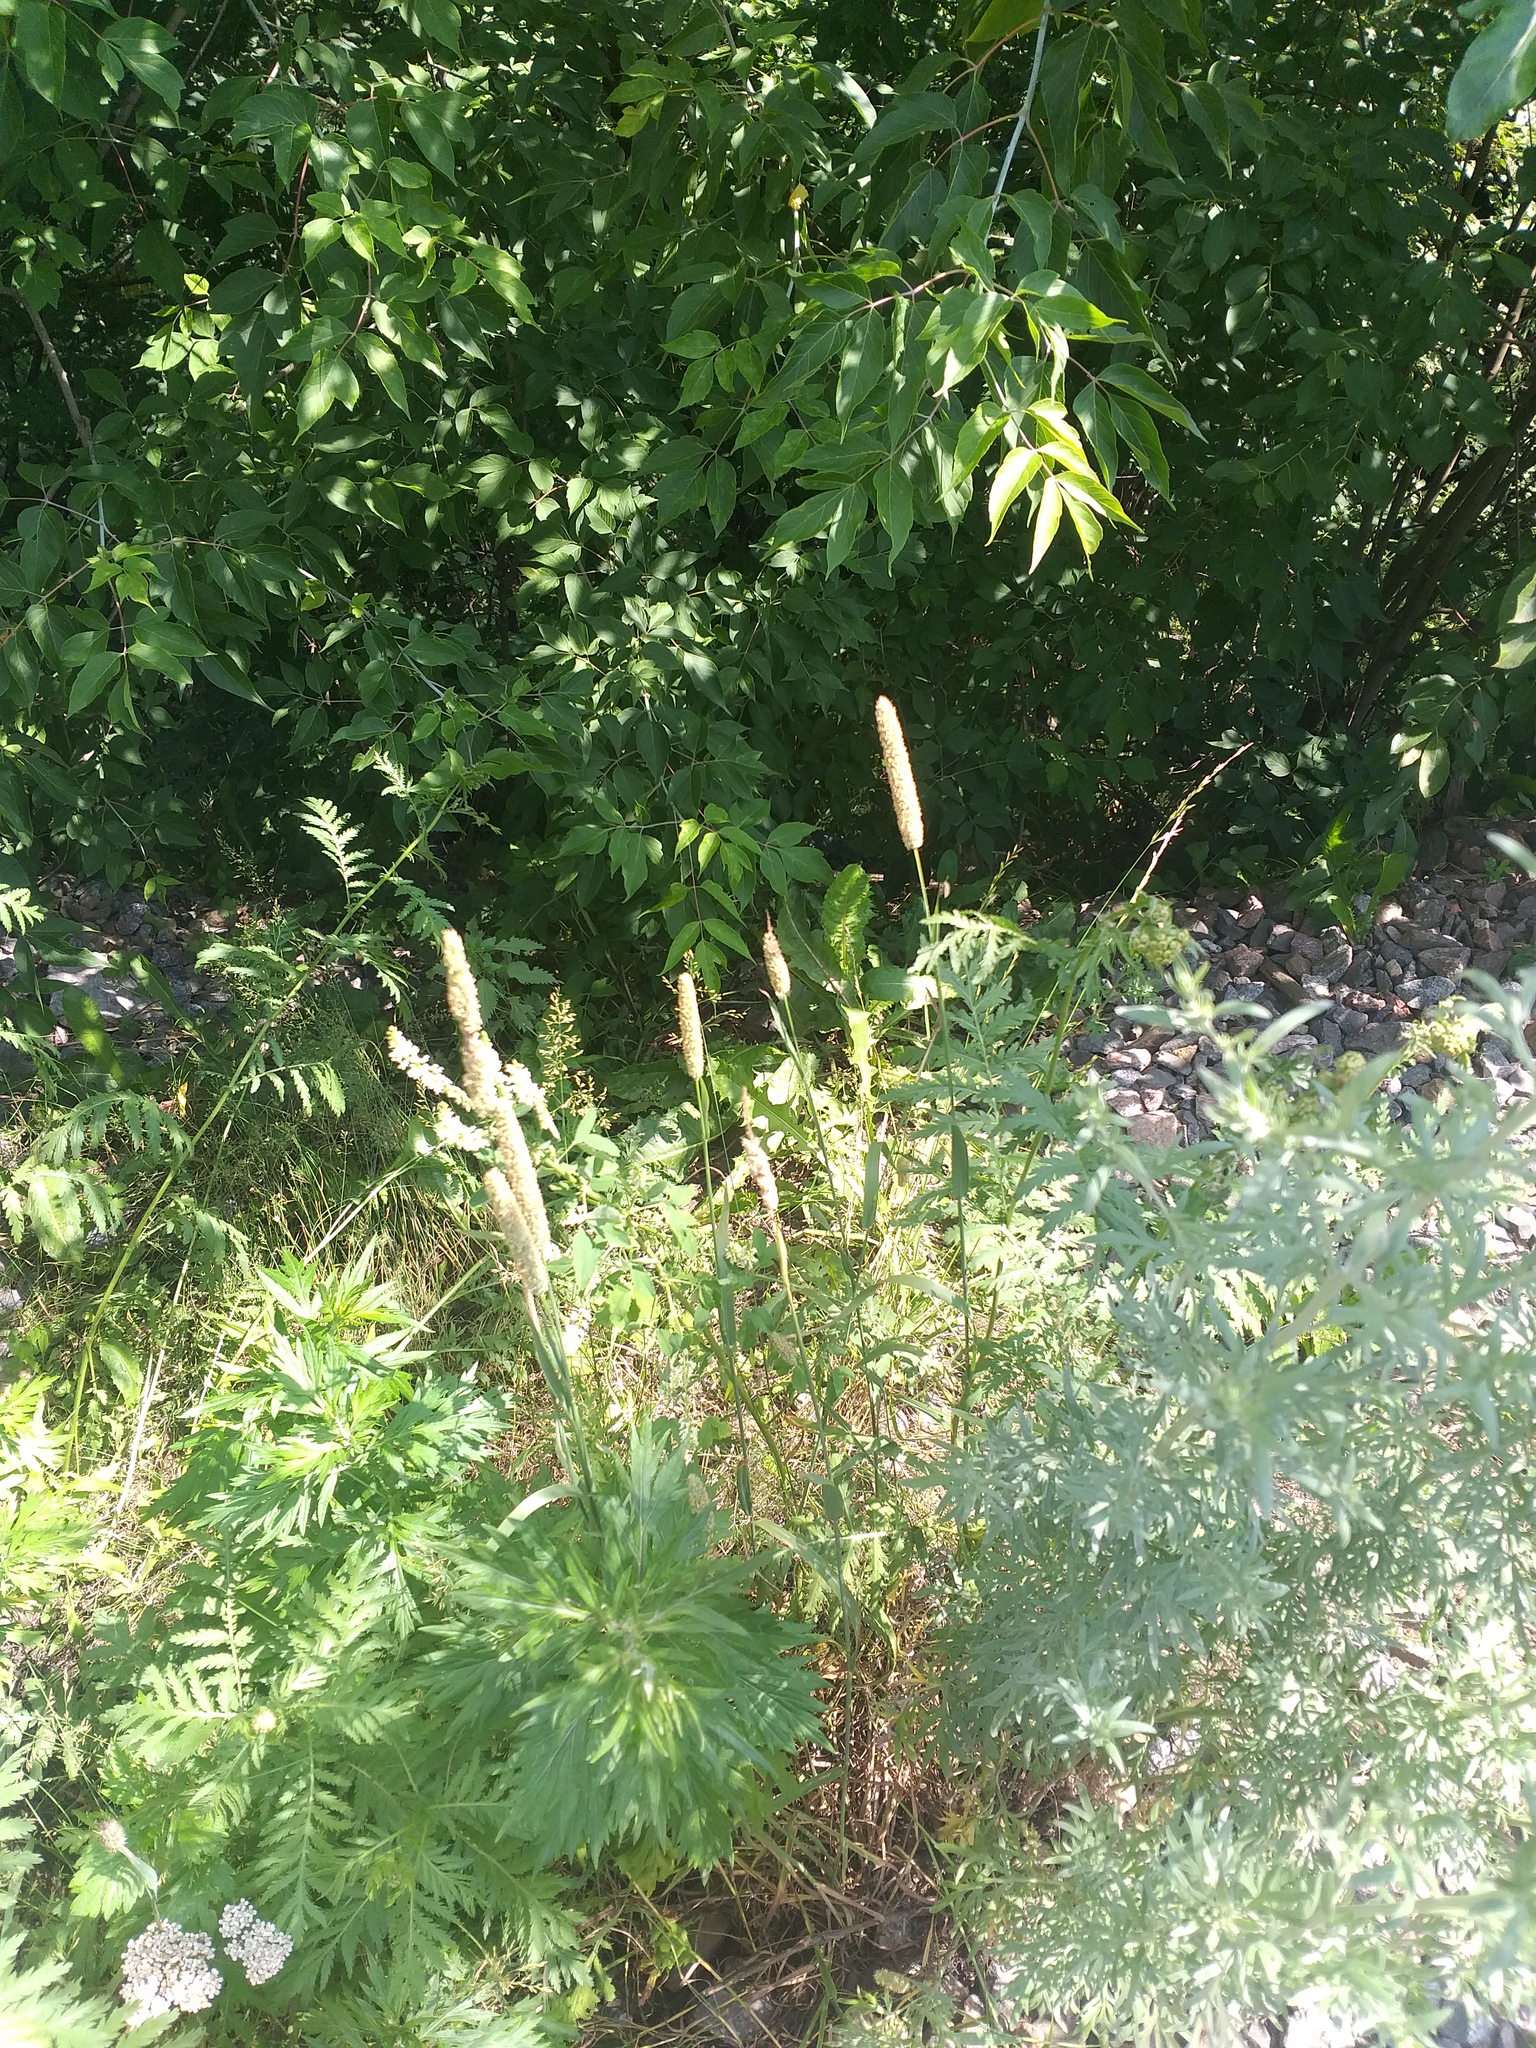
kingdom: Plantae
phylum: Tracheophyta
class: Liliopsida
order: Poales
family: Poaceae
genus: Phleum
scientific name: Phleum pratense
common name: Timothy grass
